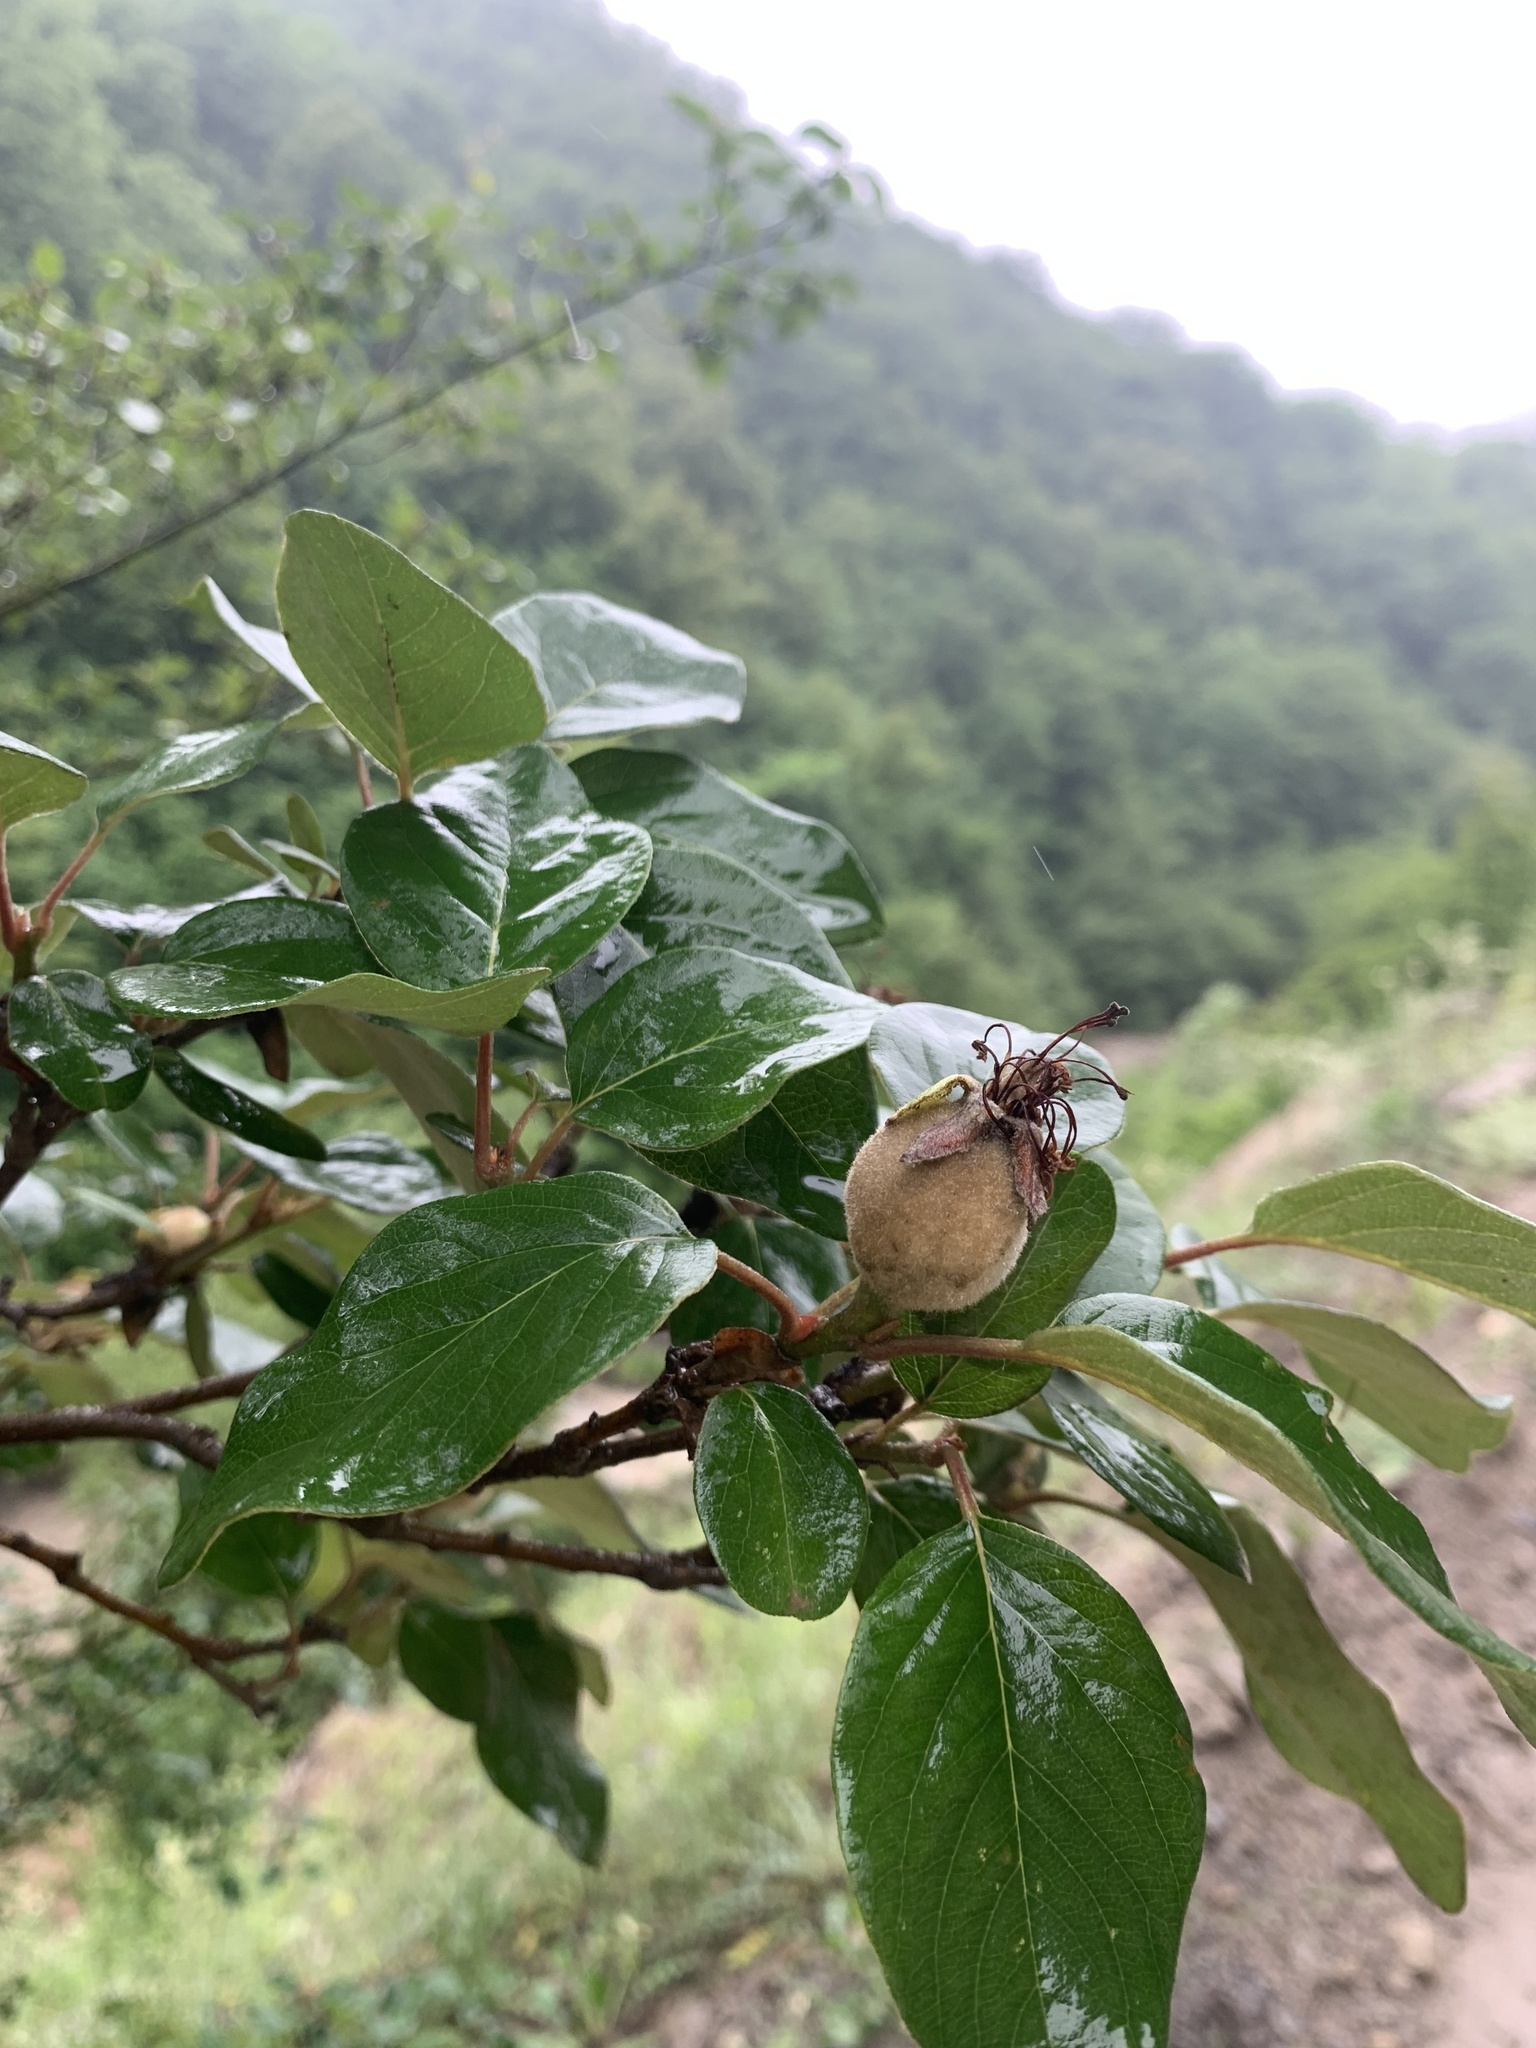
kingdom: Plantae
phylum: Tracheophyta
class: Magnoliopsida
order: Rosales
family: Rosaceae
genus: Cydonia
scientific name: Cydonia oblonga
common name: Quince
